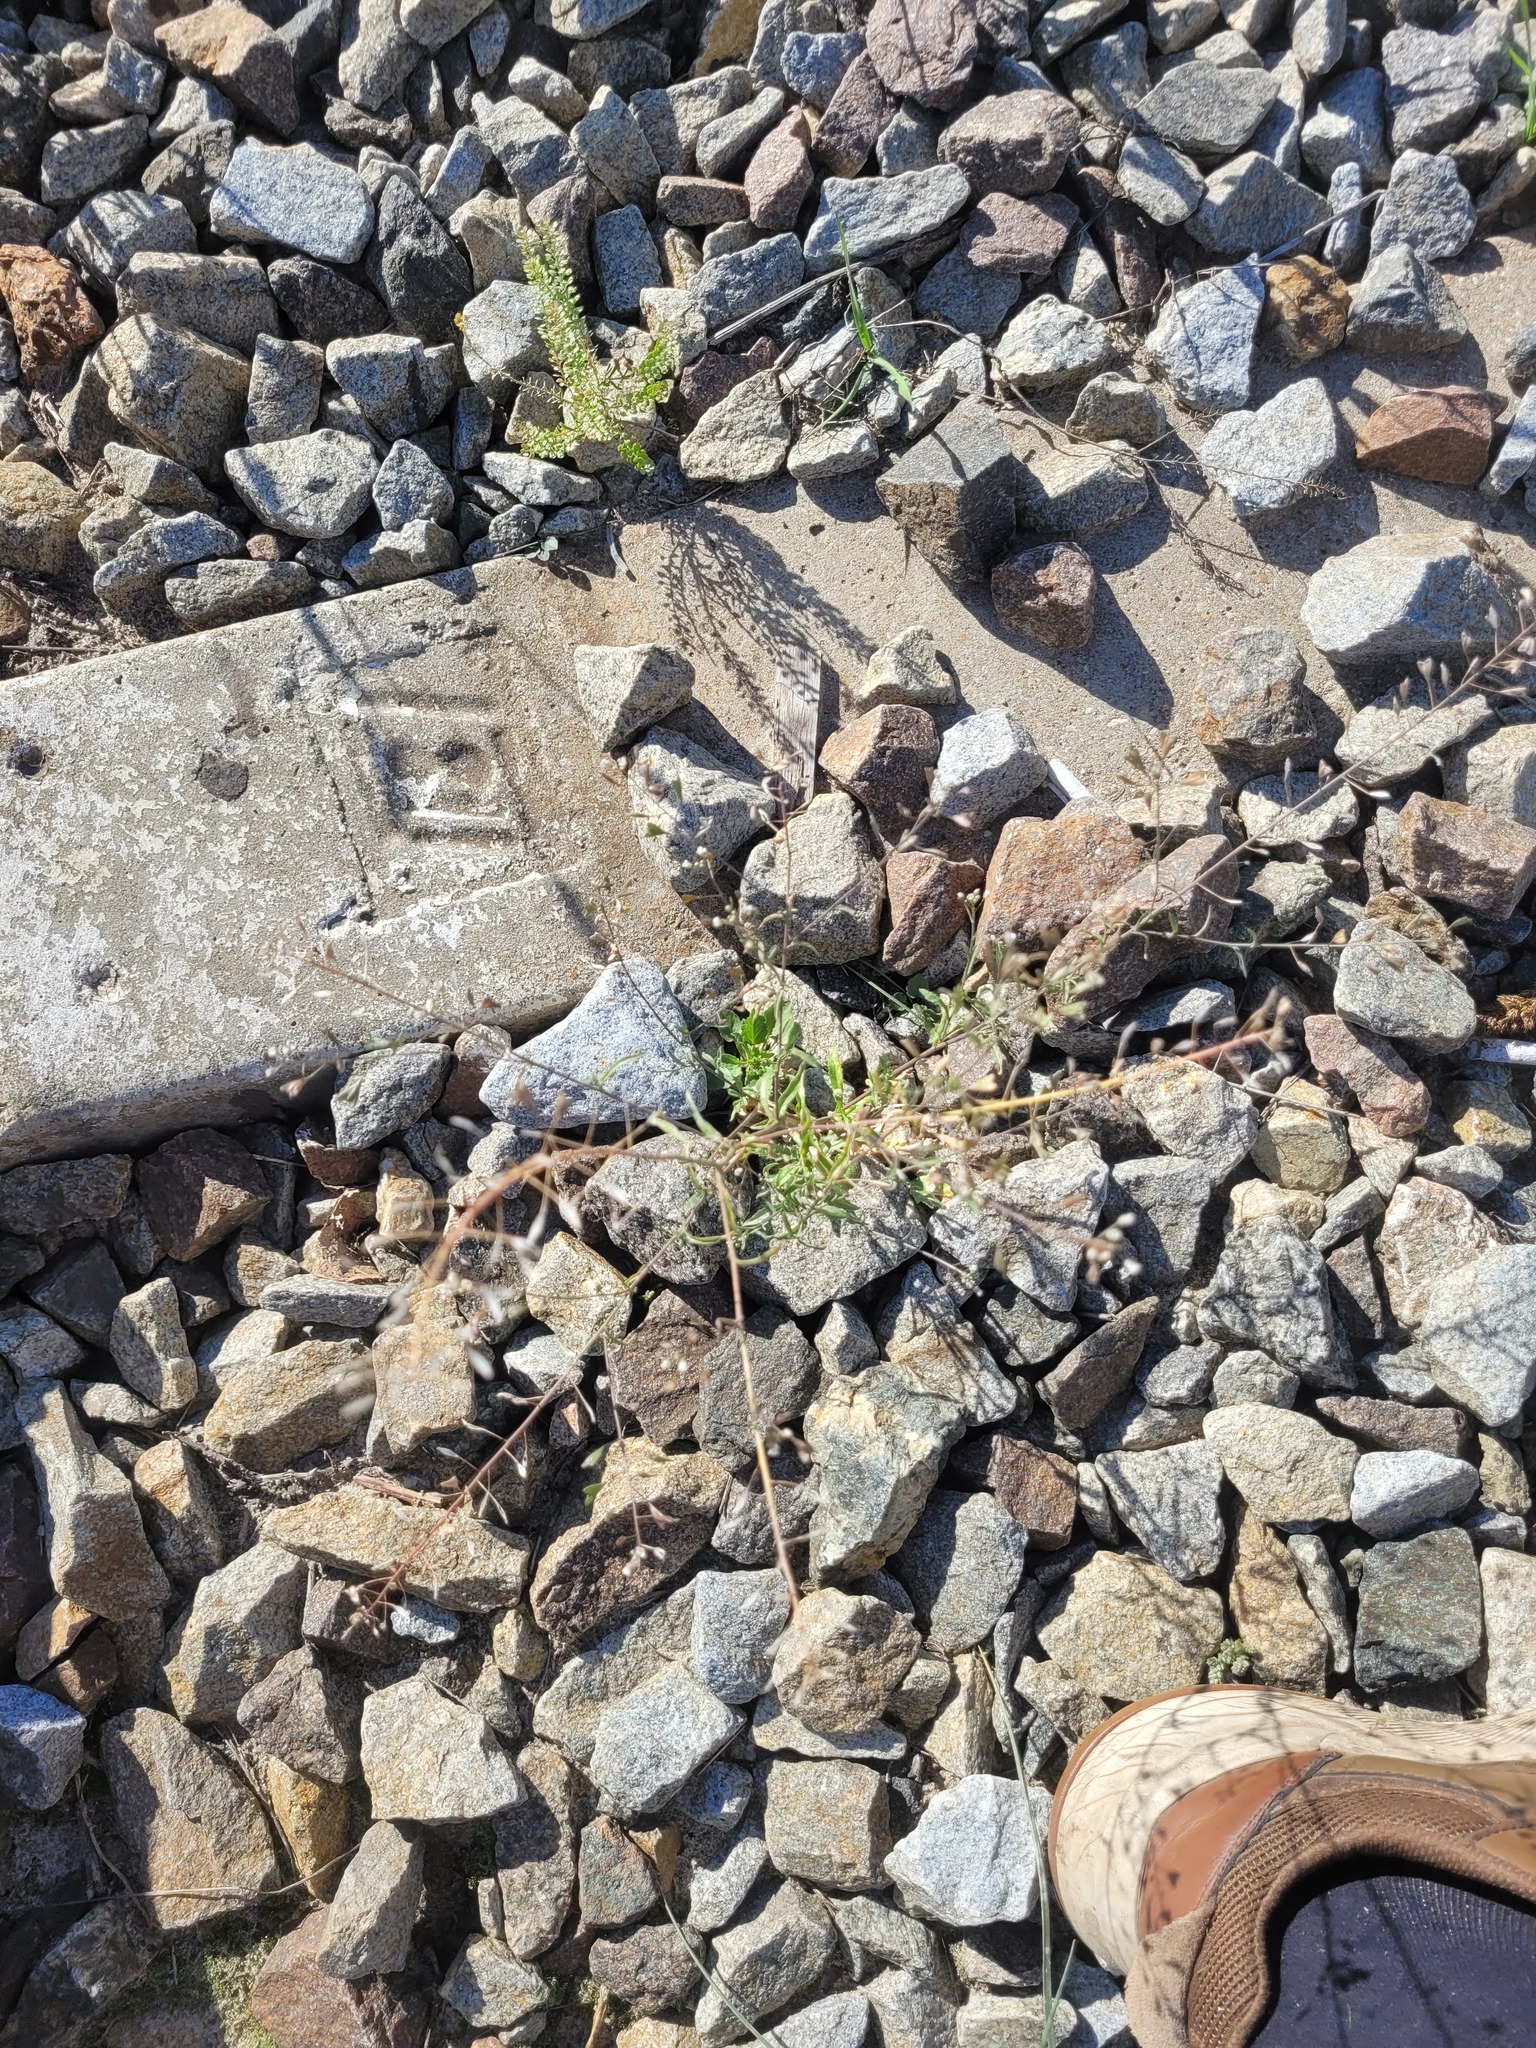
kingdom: Plantae
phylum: Tracheophyta
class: Magnoliopsida
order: Brassicales
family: Brassicaceae
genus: Capsella
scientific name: Capsella bursa-pastoris
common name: Shepherd's purse
